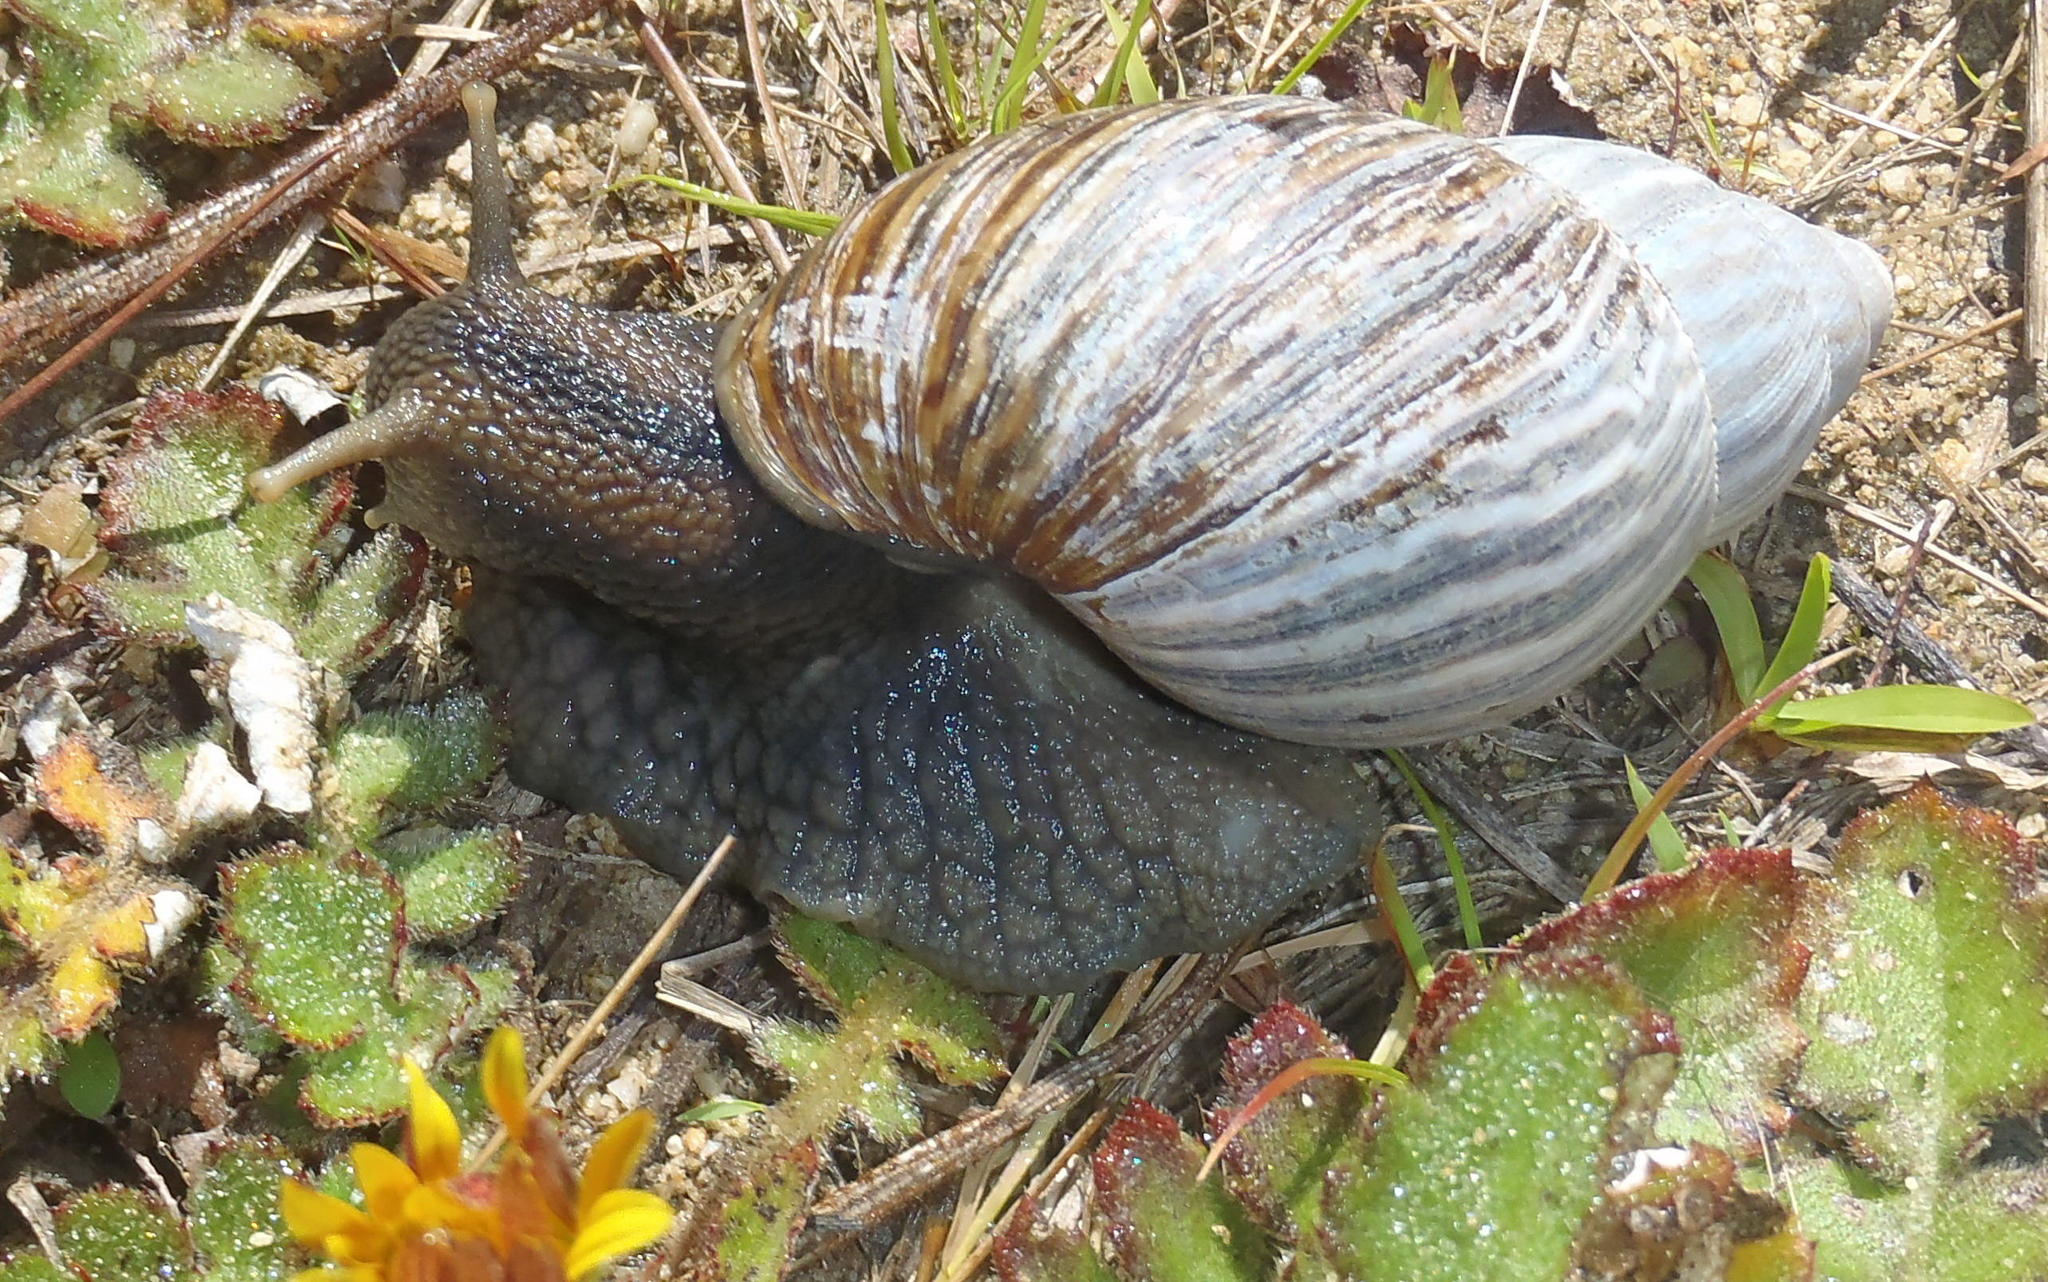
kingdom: Animalia
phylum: Mollusca
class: Gastropoda
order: Stylommatophora
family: Achatinidae
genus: Cochlitoma
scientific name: Cochlitoma zebra
